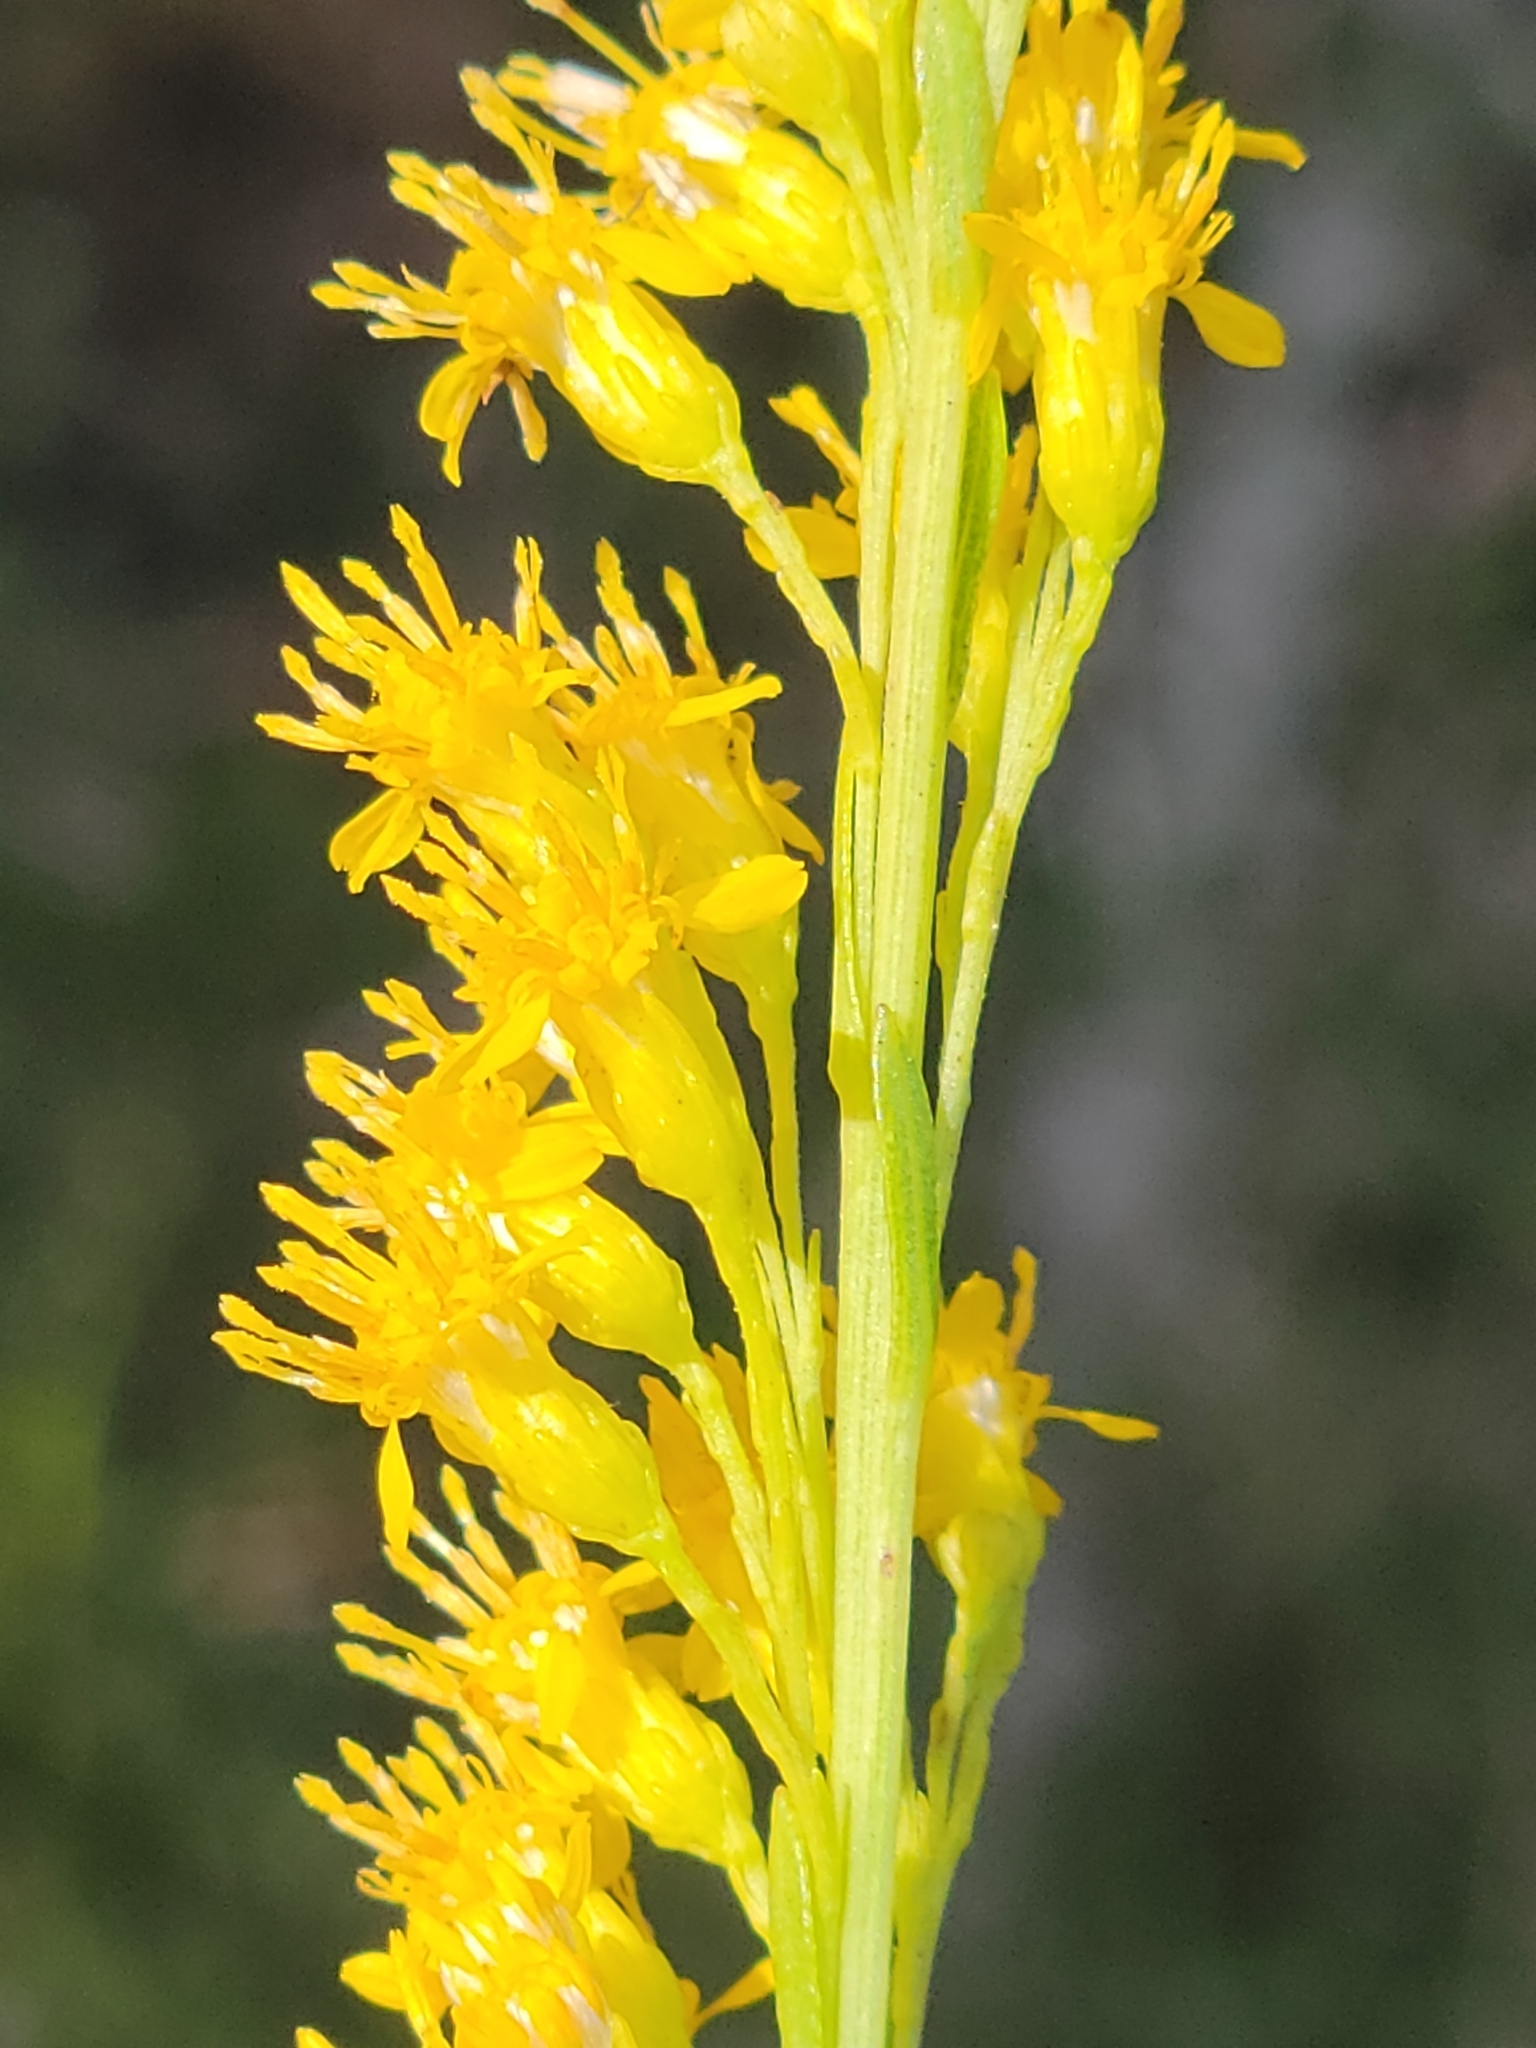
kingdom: Plantae
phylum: Tracheophyta
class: Magnoliopsida
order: Asterales
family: Asteraceae
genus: Solidago
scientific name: Solidago virgata
